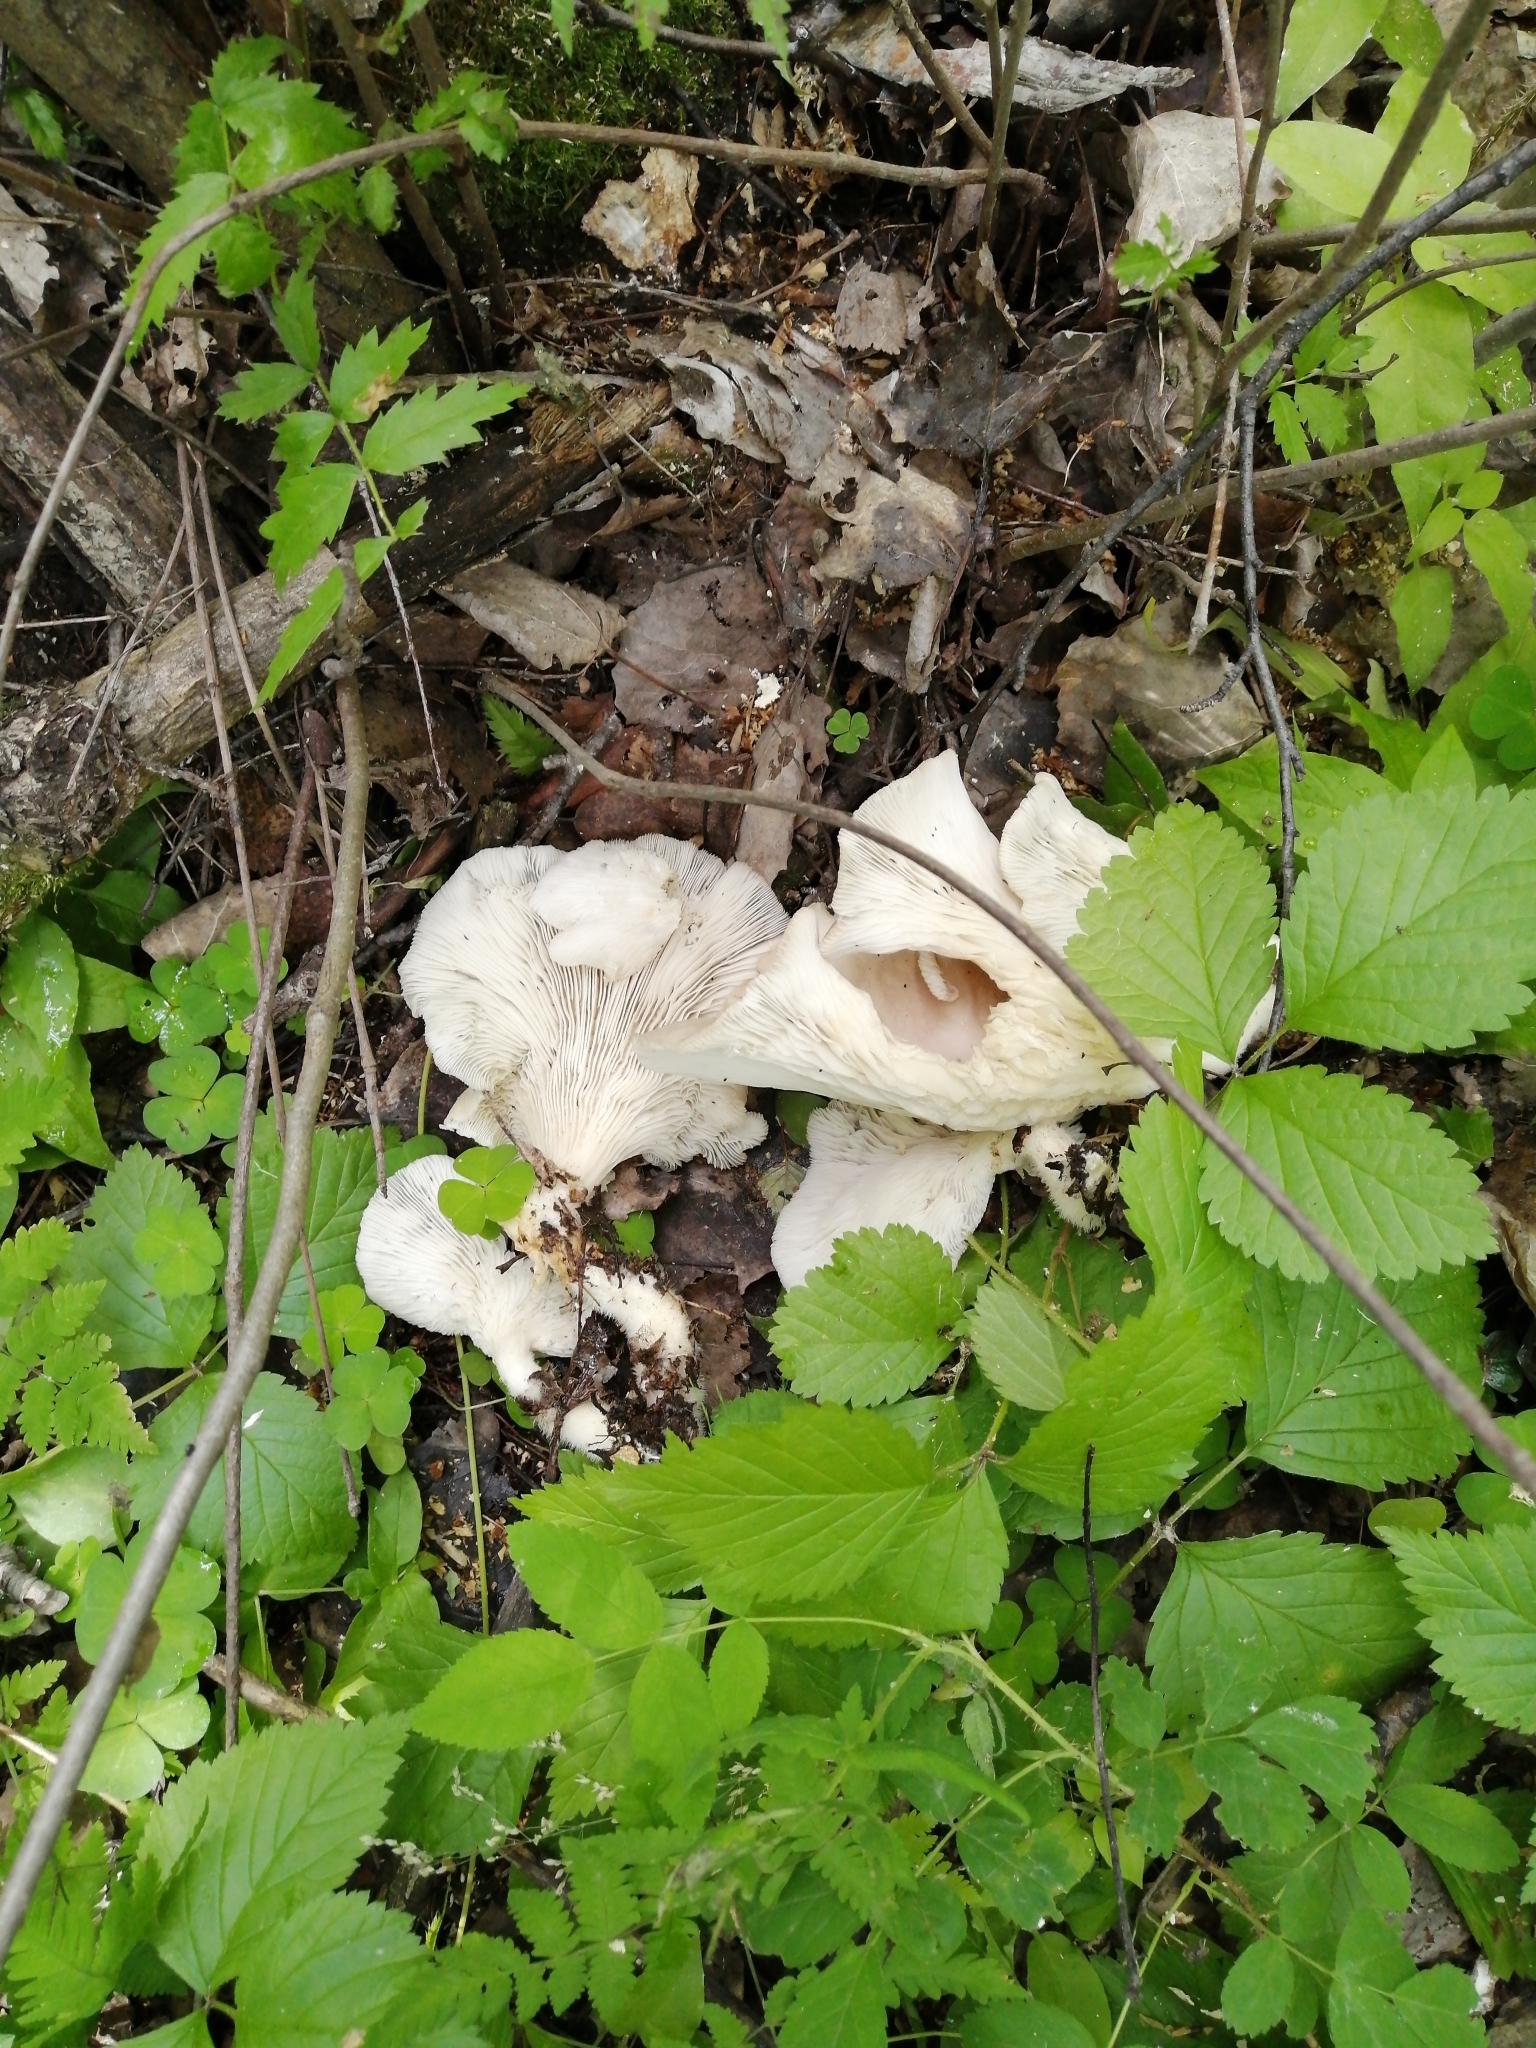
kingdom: Fungi
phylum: Basidiomycota
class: Agaricomycetes
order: Agaricales
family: Pleurotaceae
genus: Pleurotus
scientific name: Pleurotus pulmonarius
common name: Pale oyster
